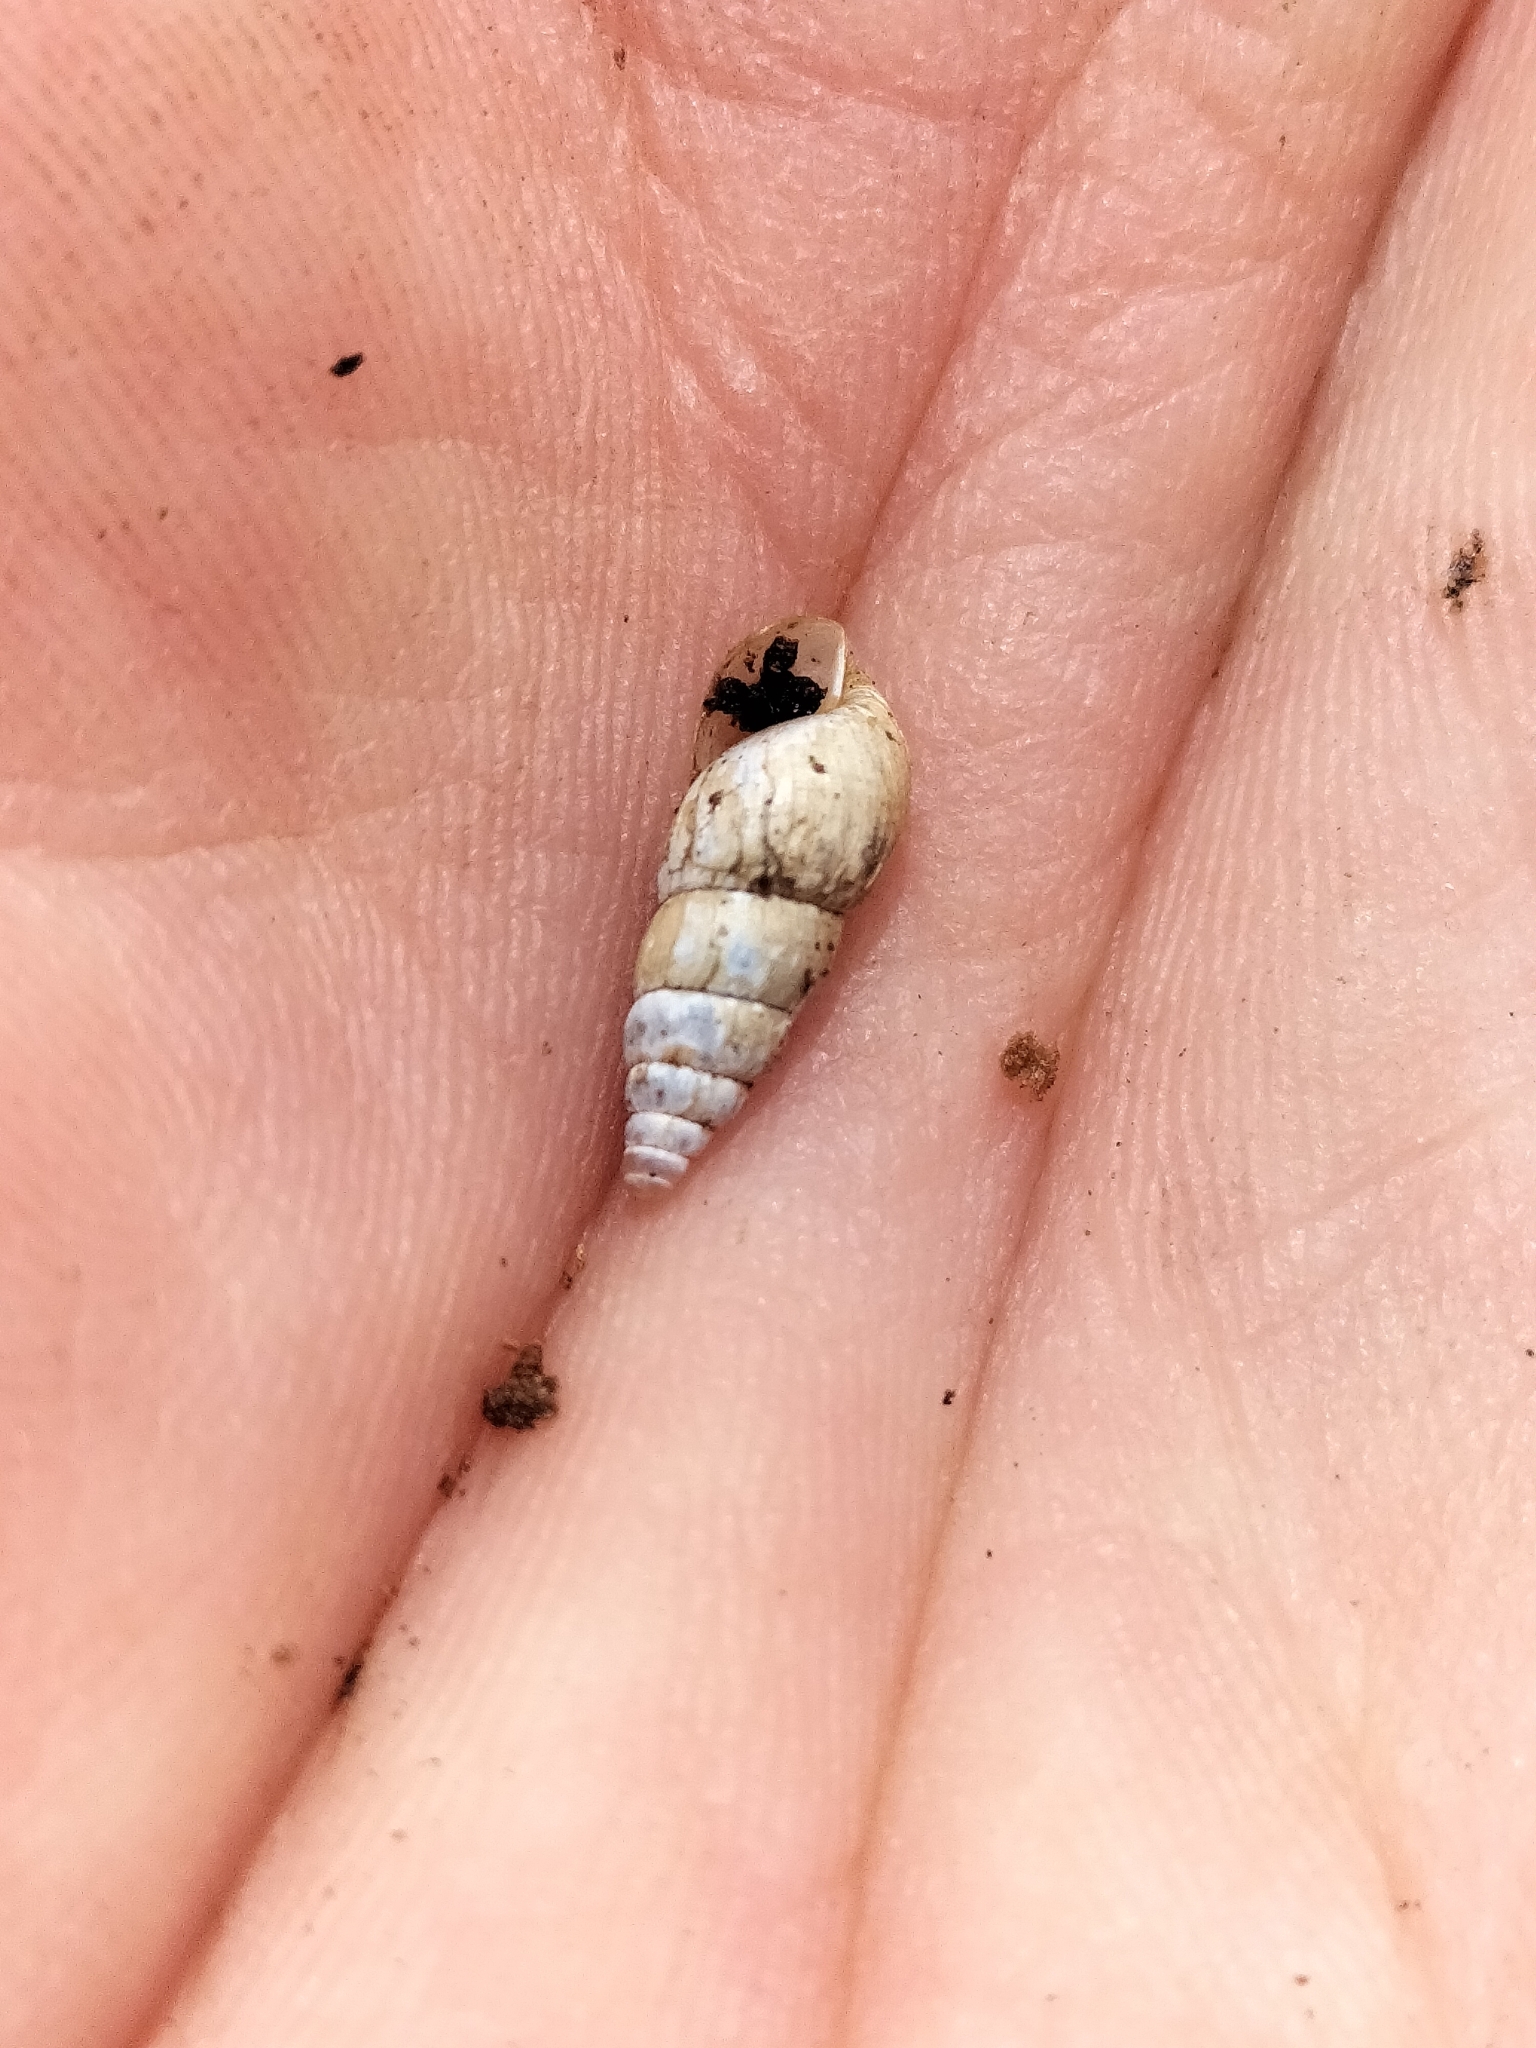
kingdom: Animalia
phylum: Mollusca
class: Gastropoda
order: Stylommatophora
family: Achatinidae
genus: Paropeas
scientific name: Paropeas achatinaceum
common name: Snail
